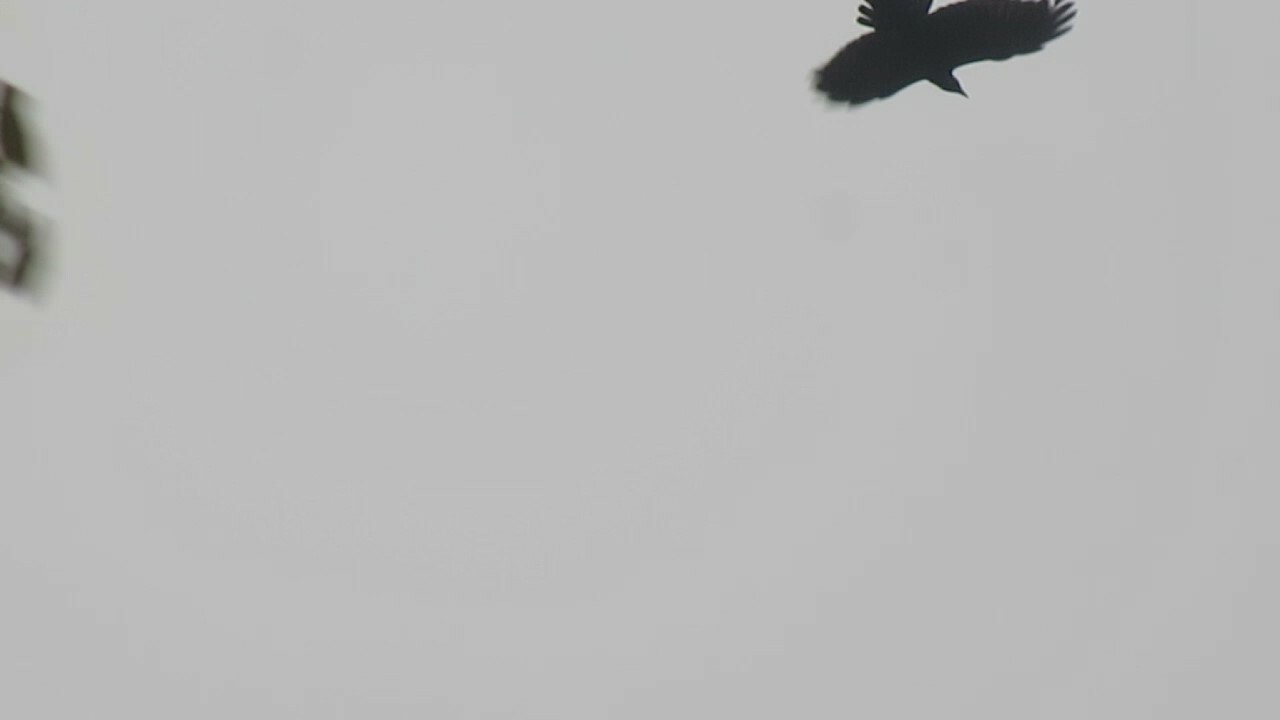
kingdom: Animalia
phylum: Chordata
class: Aves
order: Passeriformes
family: Corvidae
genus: Corvus
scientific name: Corvus ossifragus
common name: Fish crow
